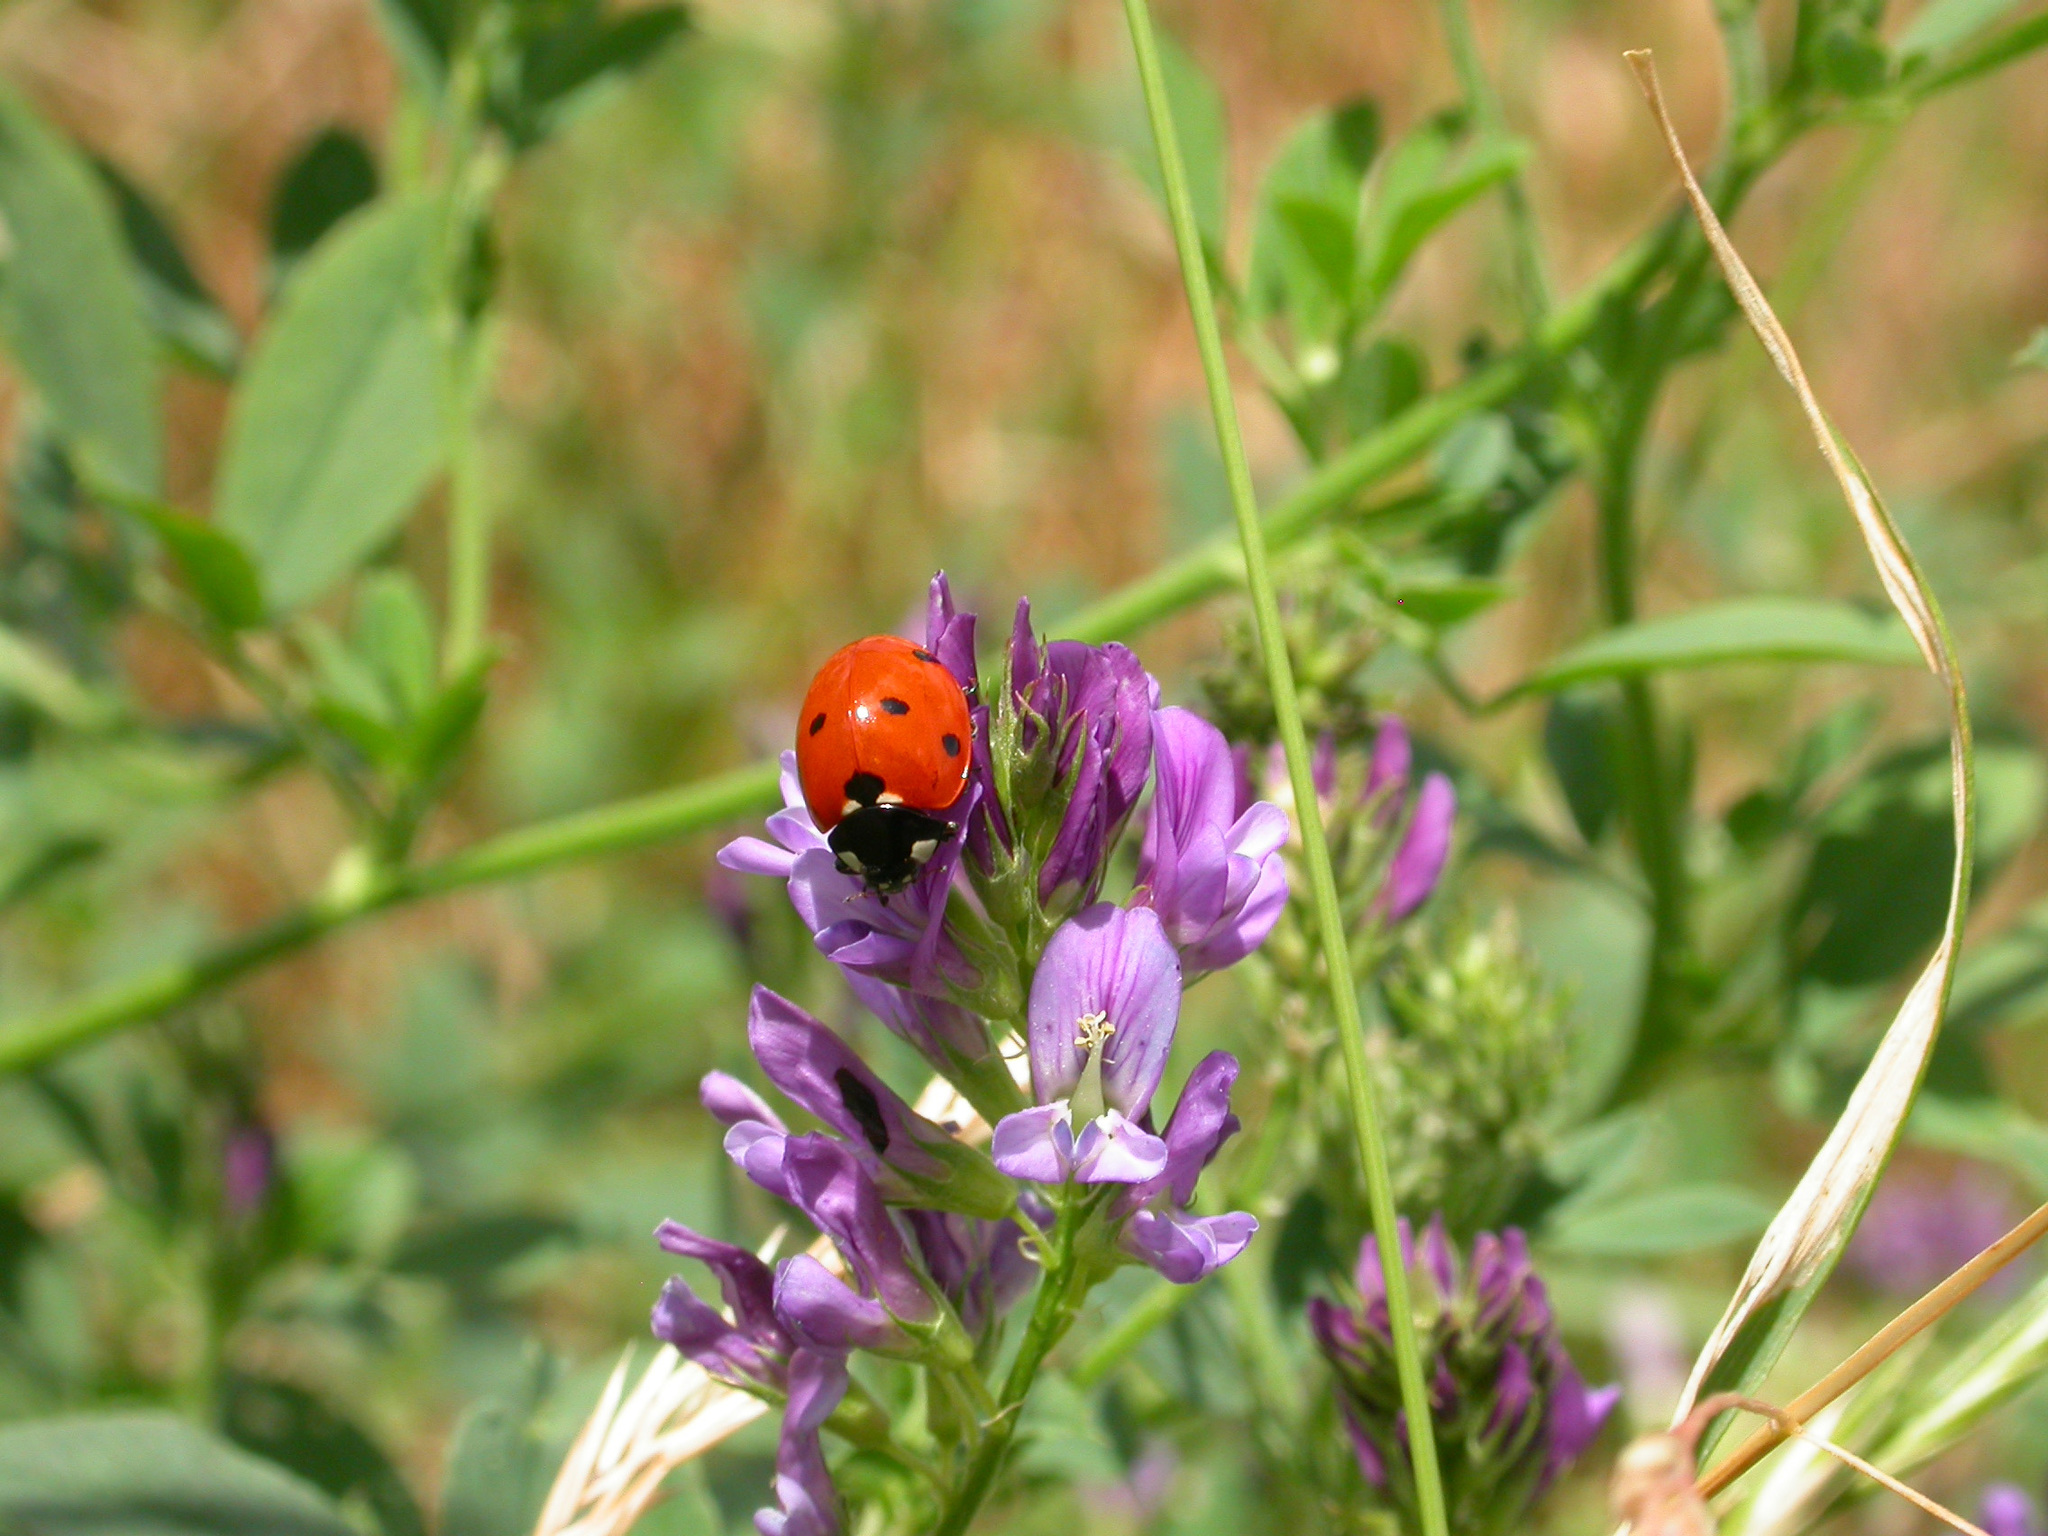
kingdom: Animalia
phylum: Arthropoda
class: Insecta
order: Coleoptera
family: Coccinellidae
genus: Coccinella
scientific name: Coccinella septempunctata
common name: Sevenspotted lady beetle
